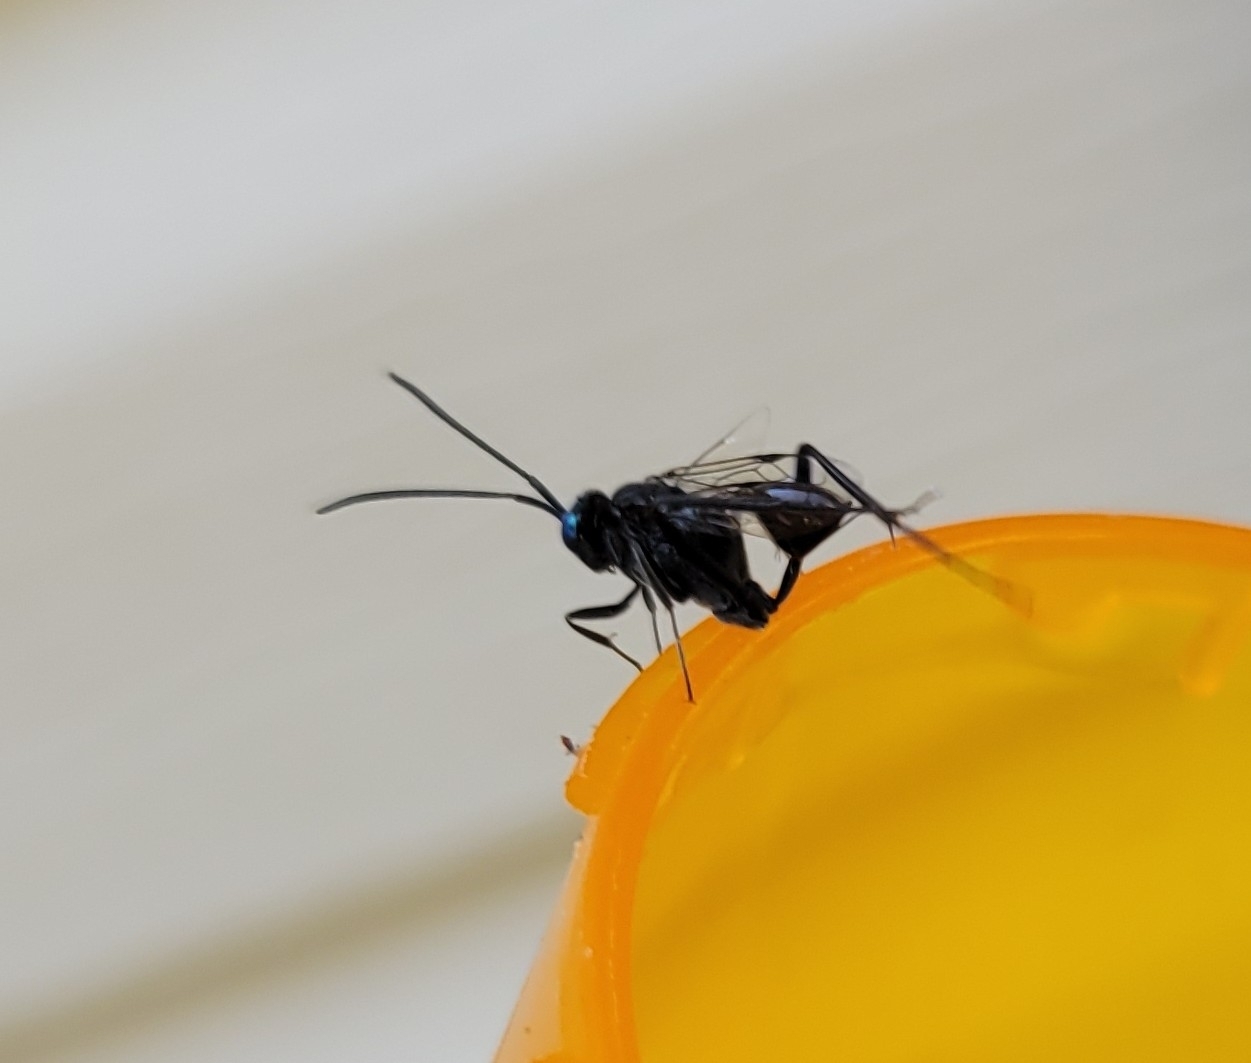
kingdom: Animalia
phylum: Arthropoda
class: Insecta
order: Hymenoptera
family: Evaniidae
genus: Evania
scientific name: Evania appendigaster
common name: Ensign wasp
